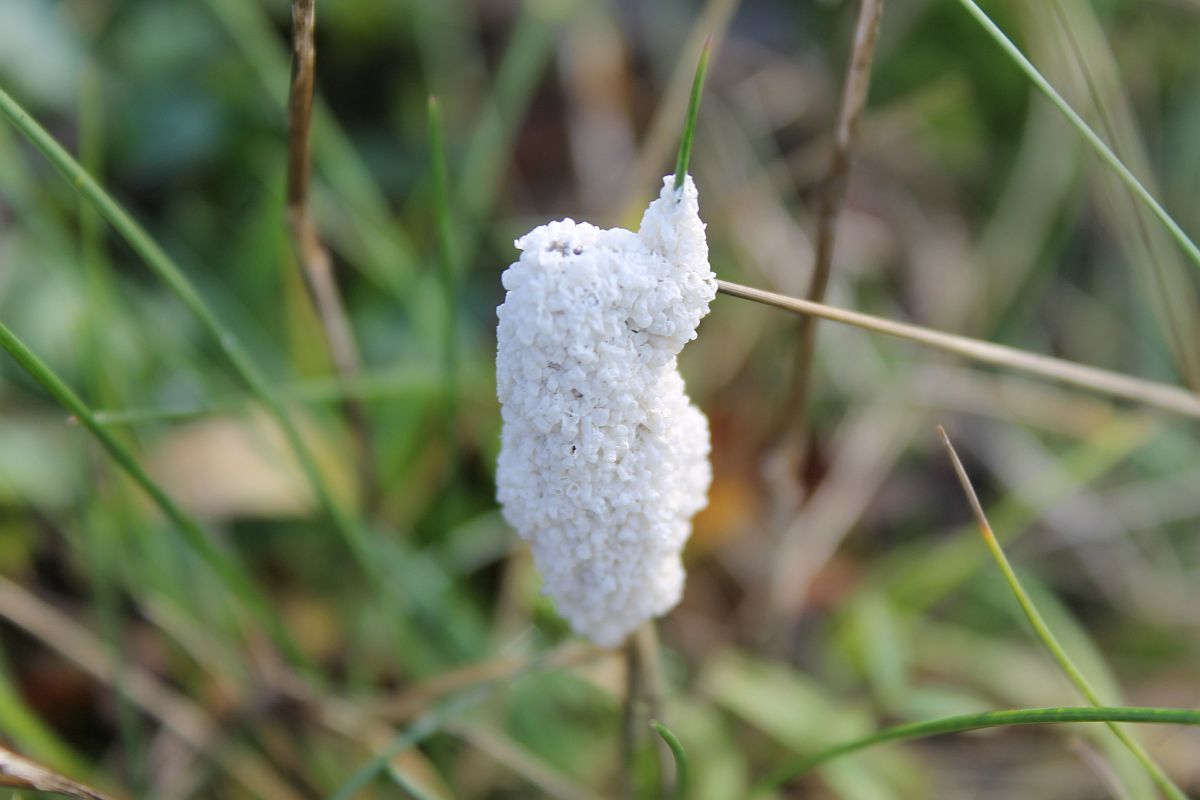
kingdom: Protozoa
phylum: Mycetozoa
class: Myxomycetes
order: Physarales
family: Physaraceae
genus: Didymium
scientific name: Didymium
